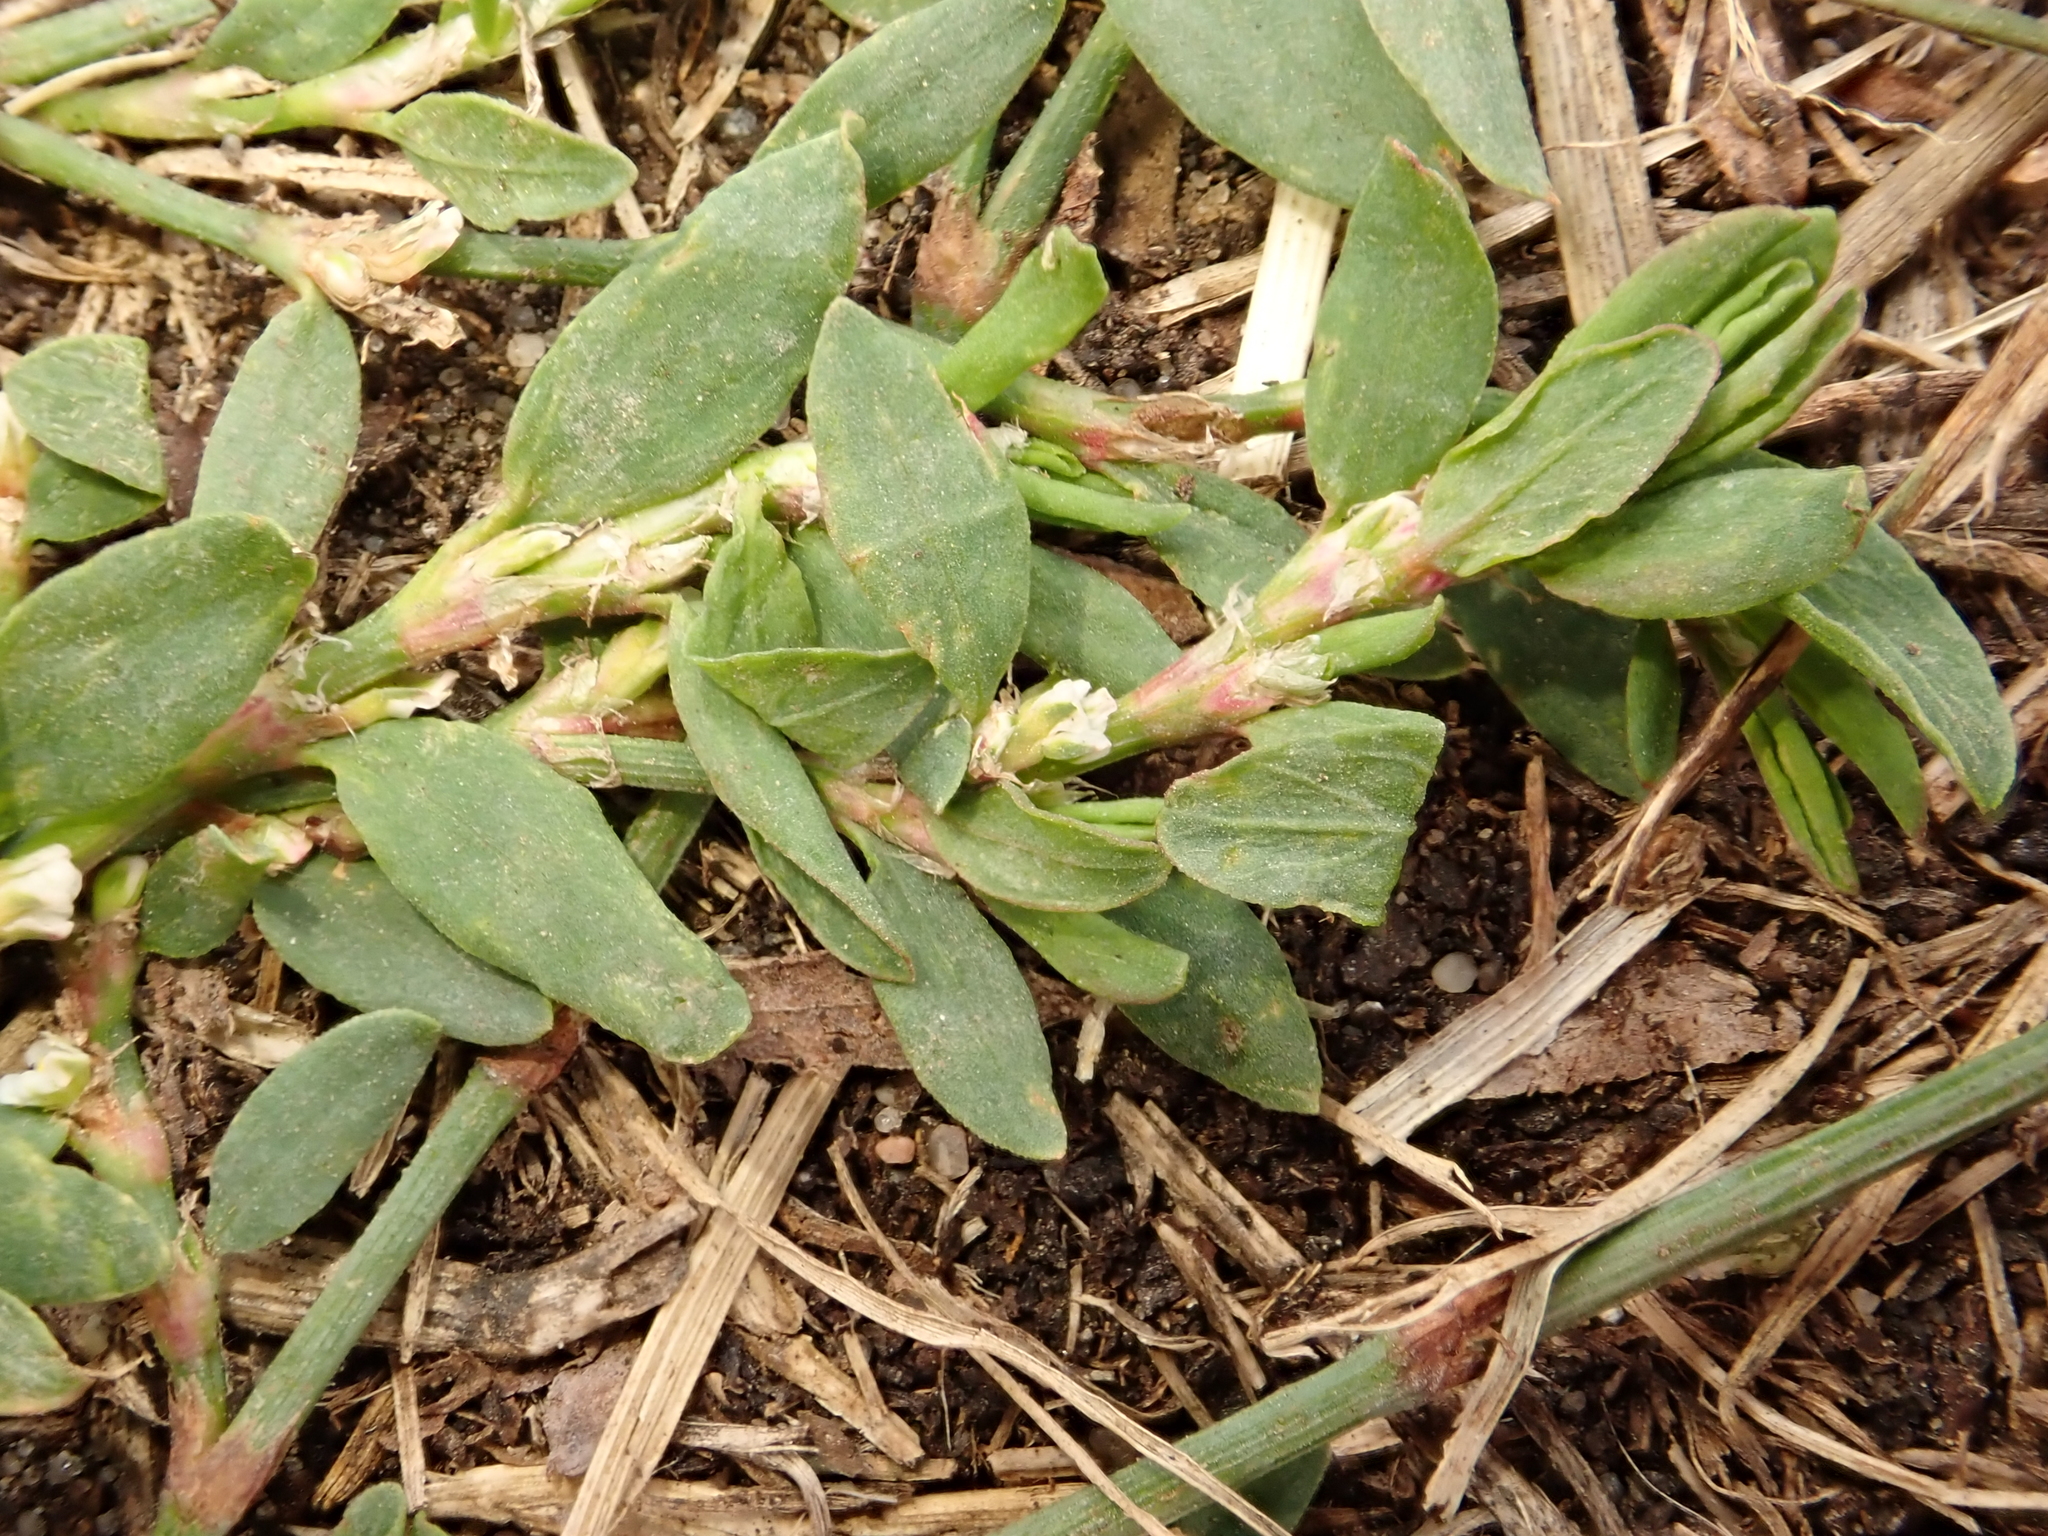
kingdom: Plantae
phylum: Tracheophyta
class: Magnoliopsida
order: Caryophyllales
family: Polygonaceae
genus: Polygonum
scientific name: Polygonum aviculare
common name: Prostrate knotweed
